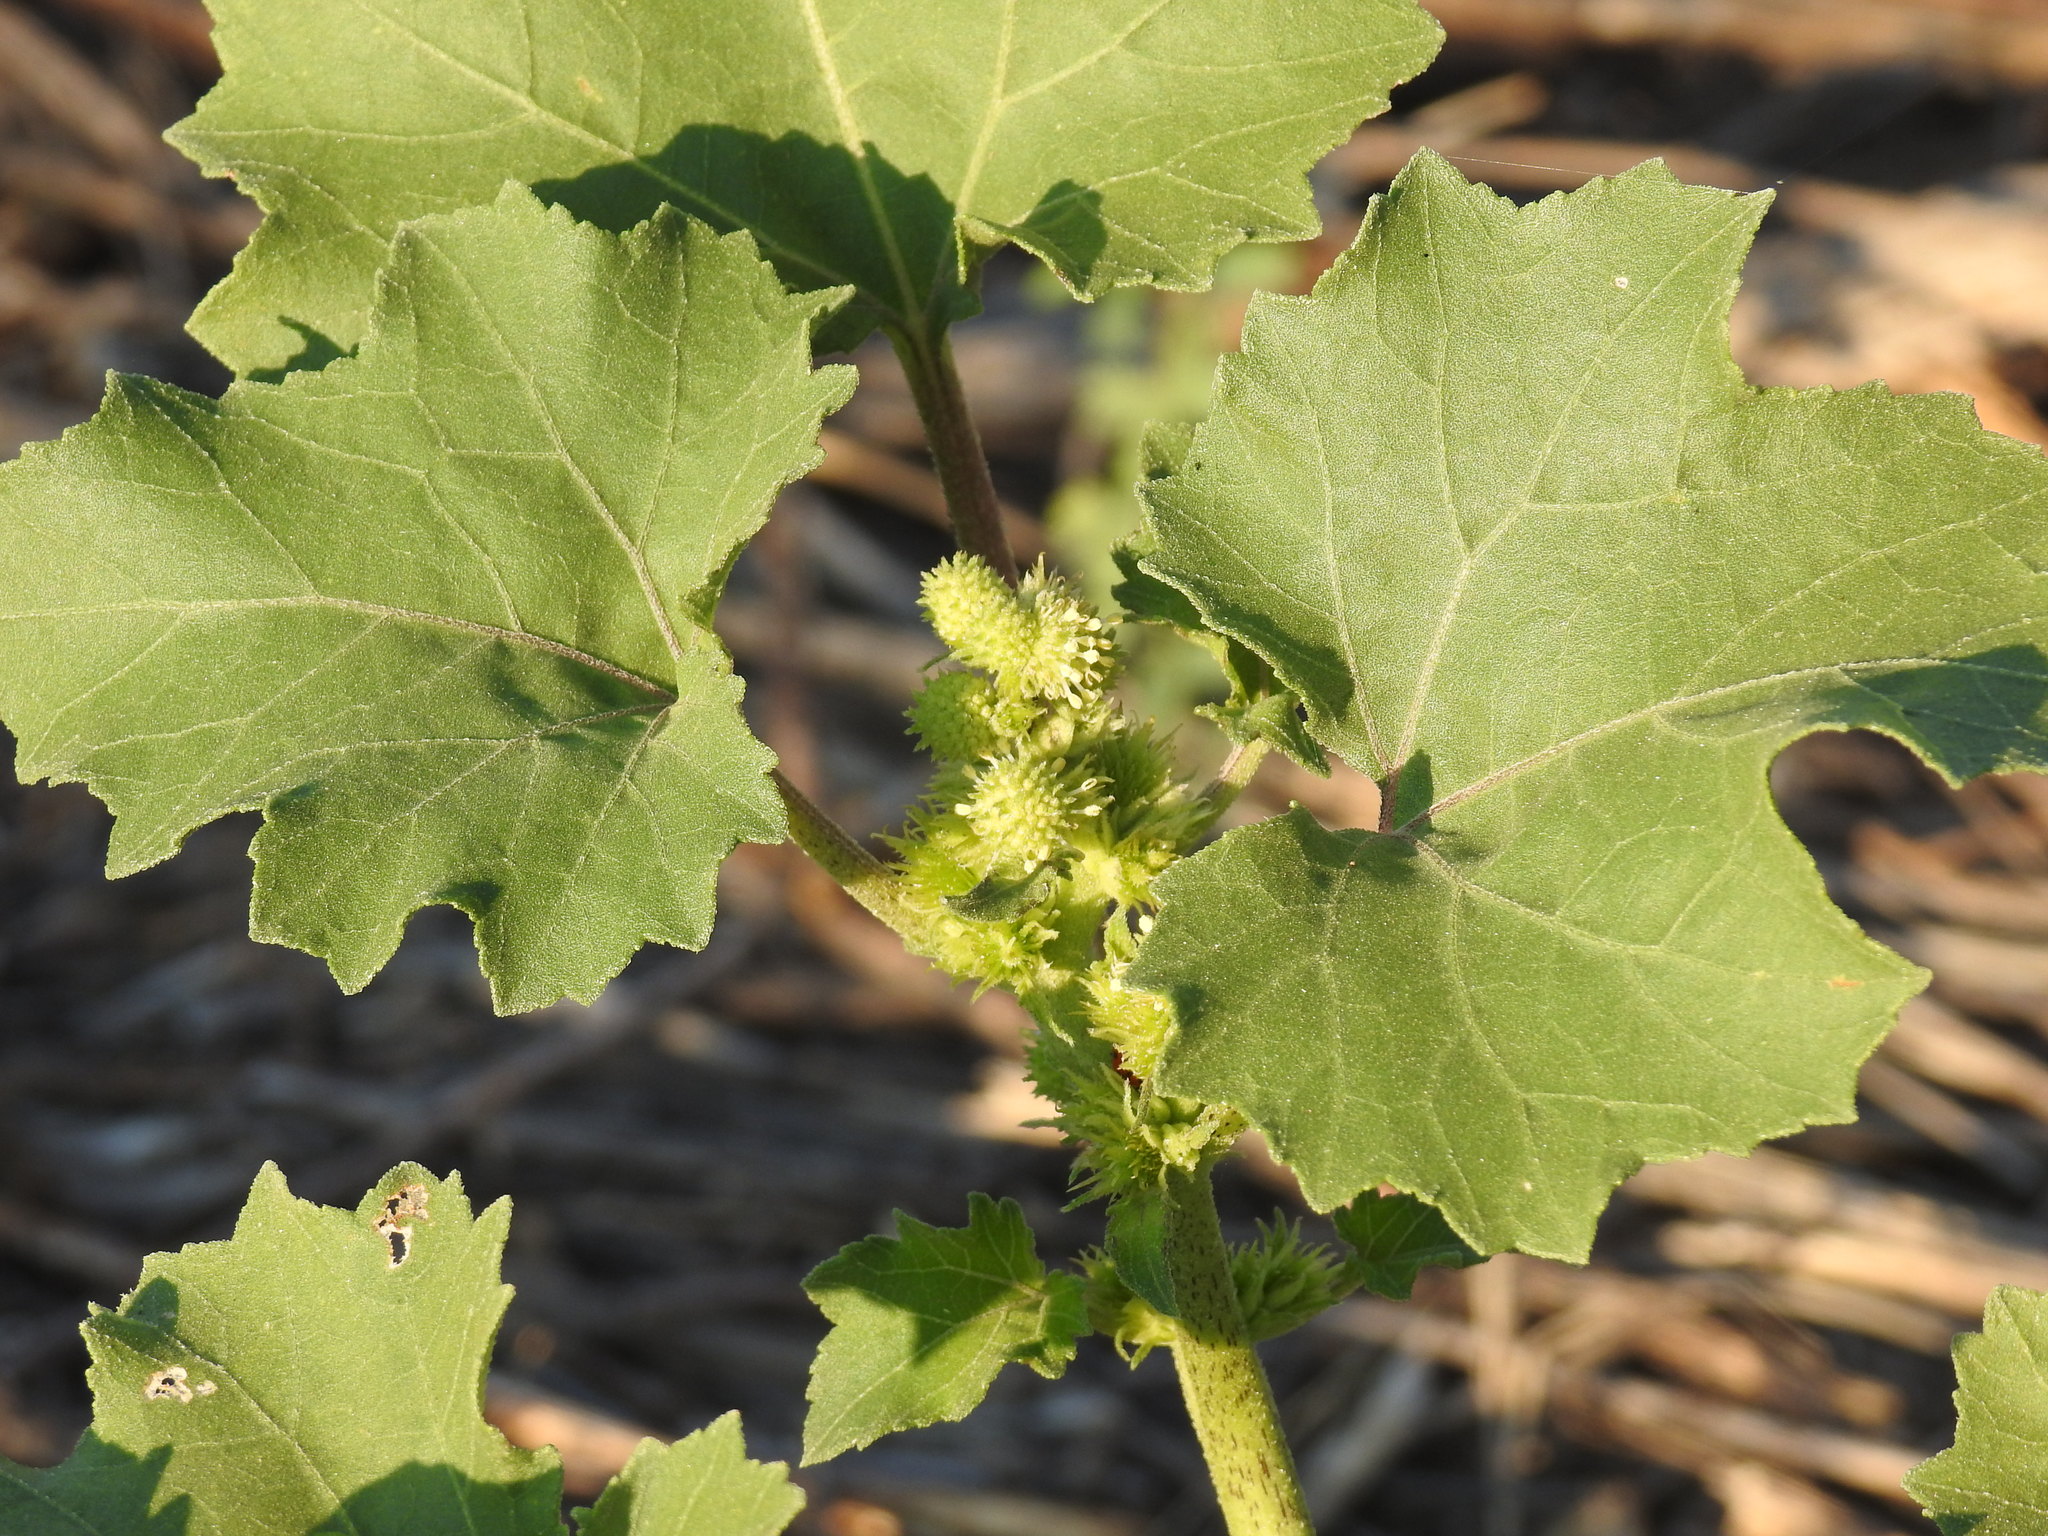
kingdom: Plantae
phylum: Tracheophyta
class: Magnoliopsida
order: Asterales
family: Asteraceae
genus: Xanthium
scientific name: Xanthium strumarium
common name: Rough cocklebur
